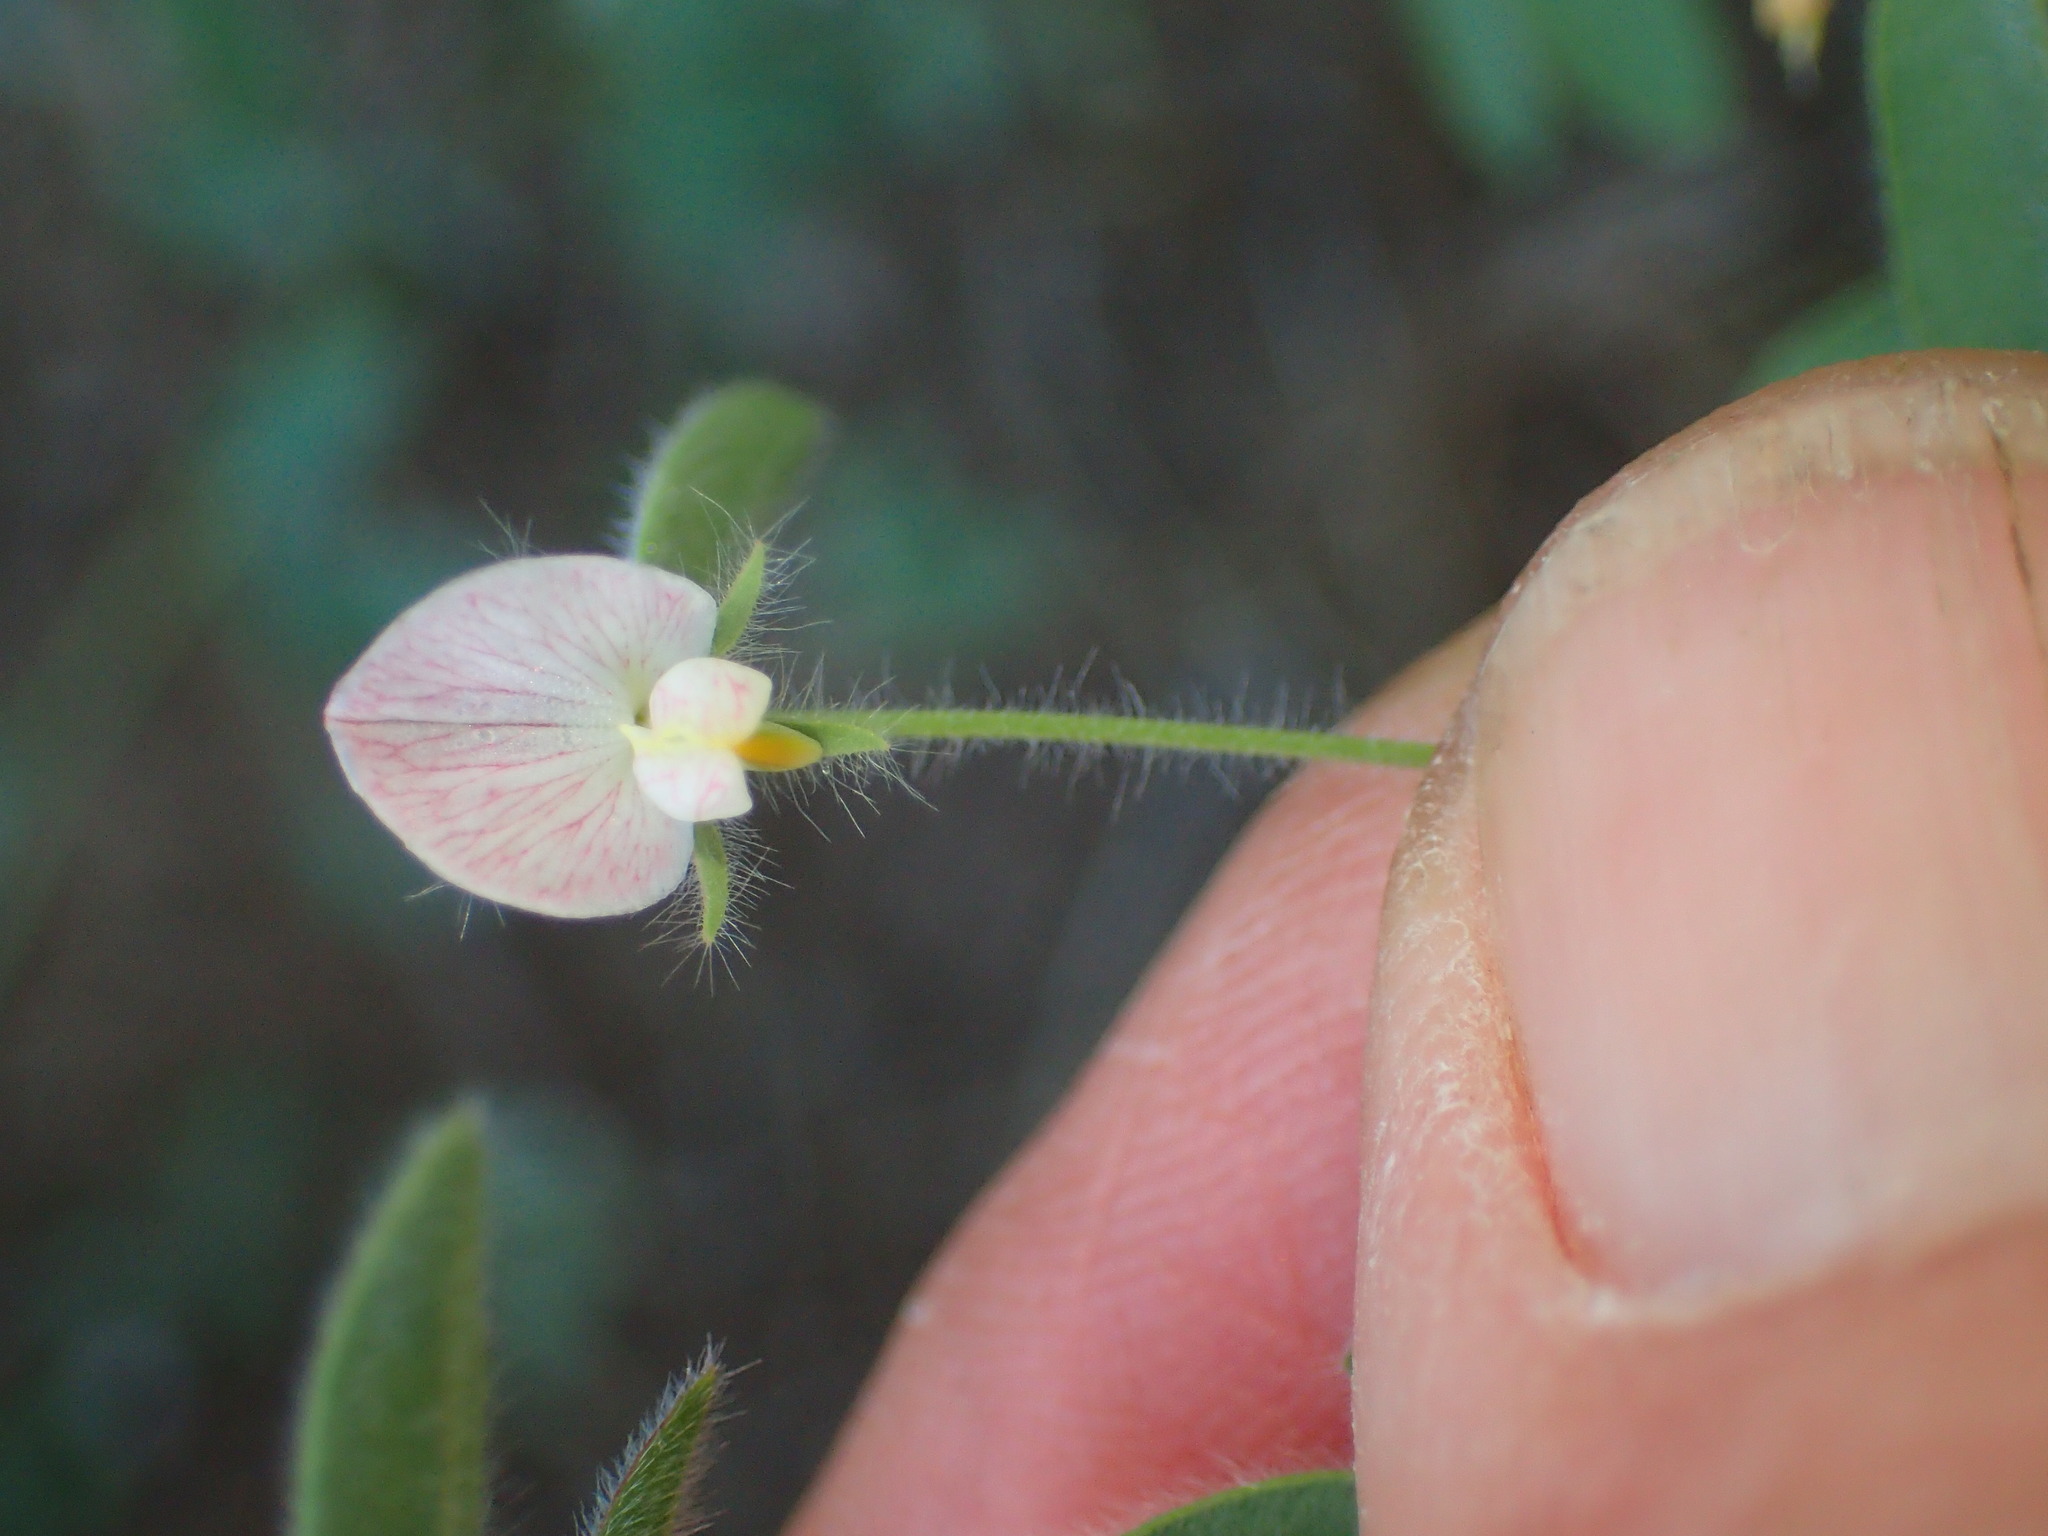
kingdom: Plantae
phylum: Tracheophyta
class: Magnoliopsida
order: Fabales
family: Fabaceae
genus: Acmispon
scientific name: Acmispon americanus
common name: American bird's-foot trefoil
